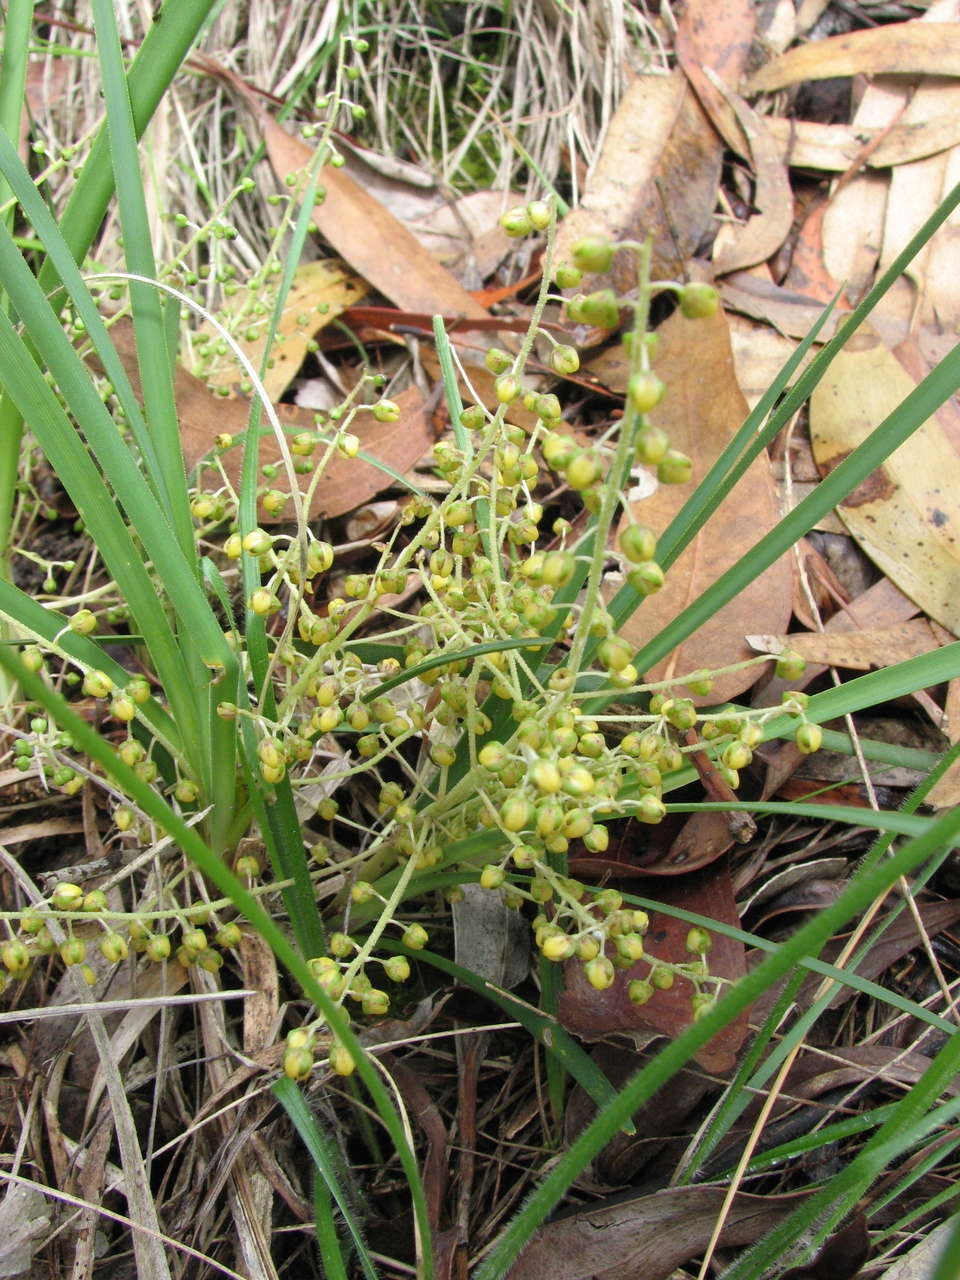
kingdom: Plantae
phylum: Tracheophyta
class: Liliopsida
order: Asparagales
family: Asparagaceae
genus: Lomandra
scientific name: Lomandra filiformis
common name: Wattle mat-rush
